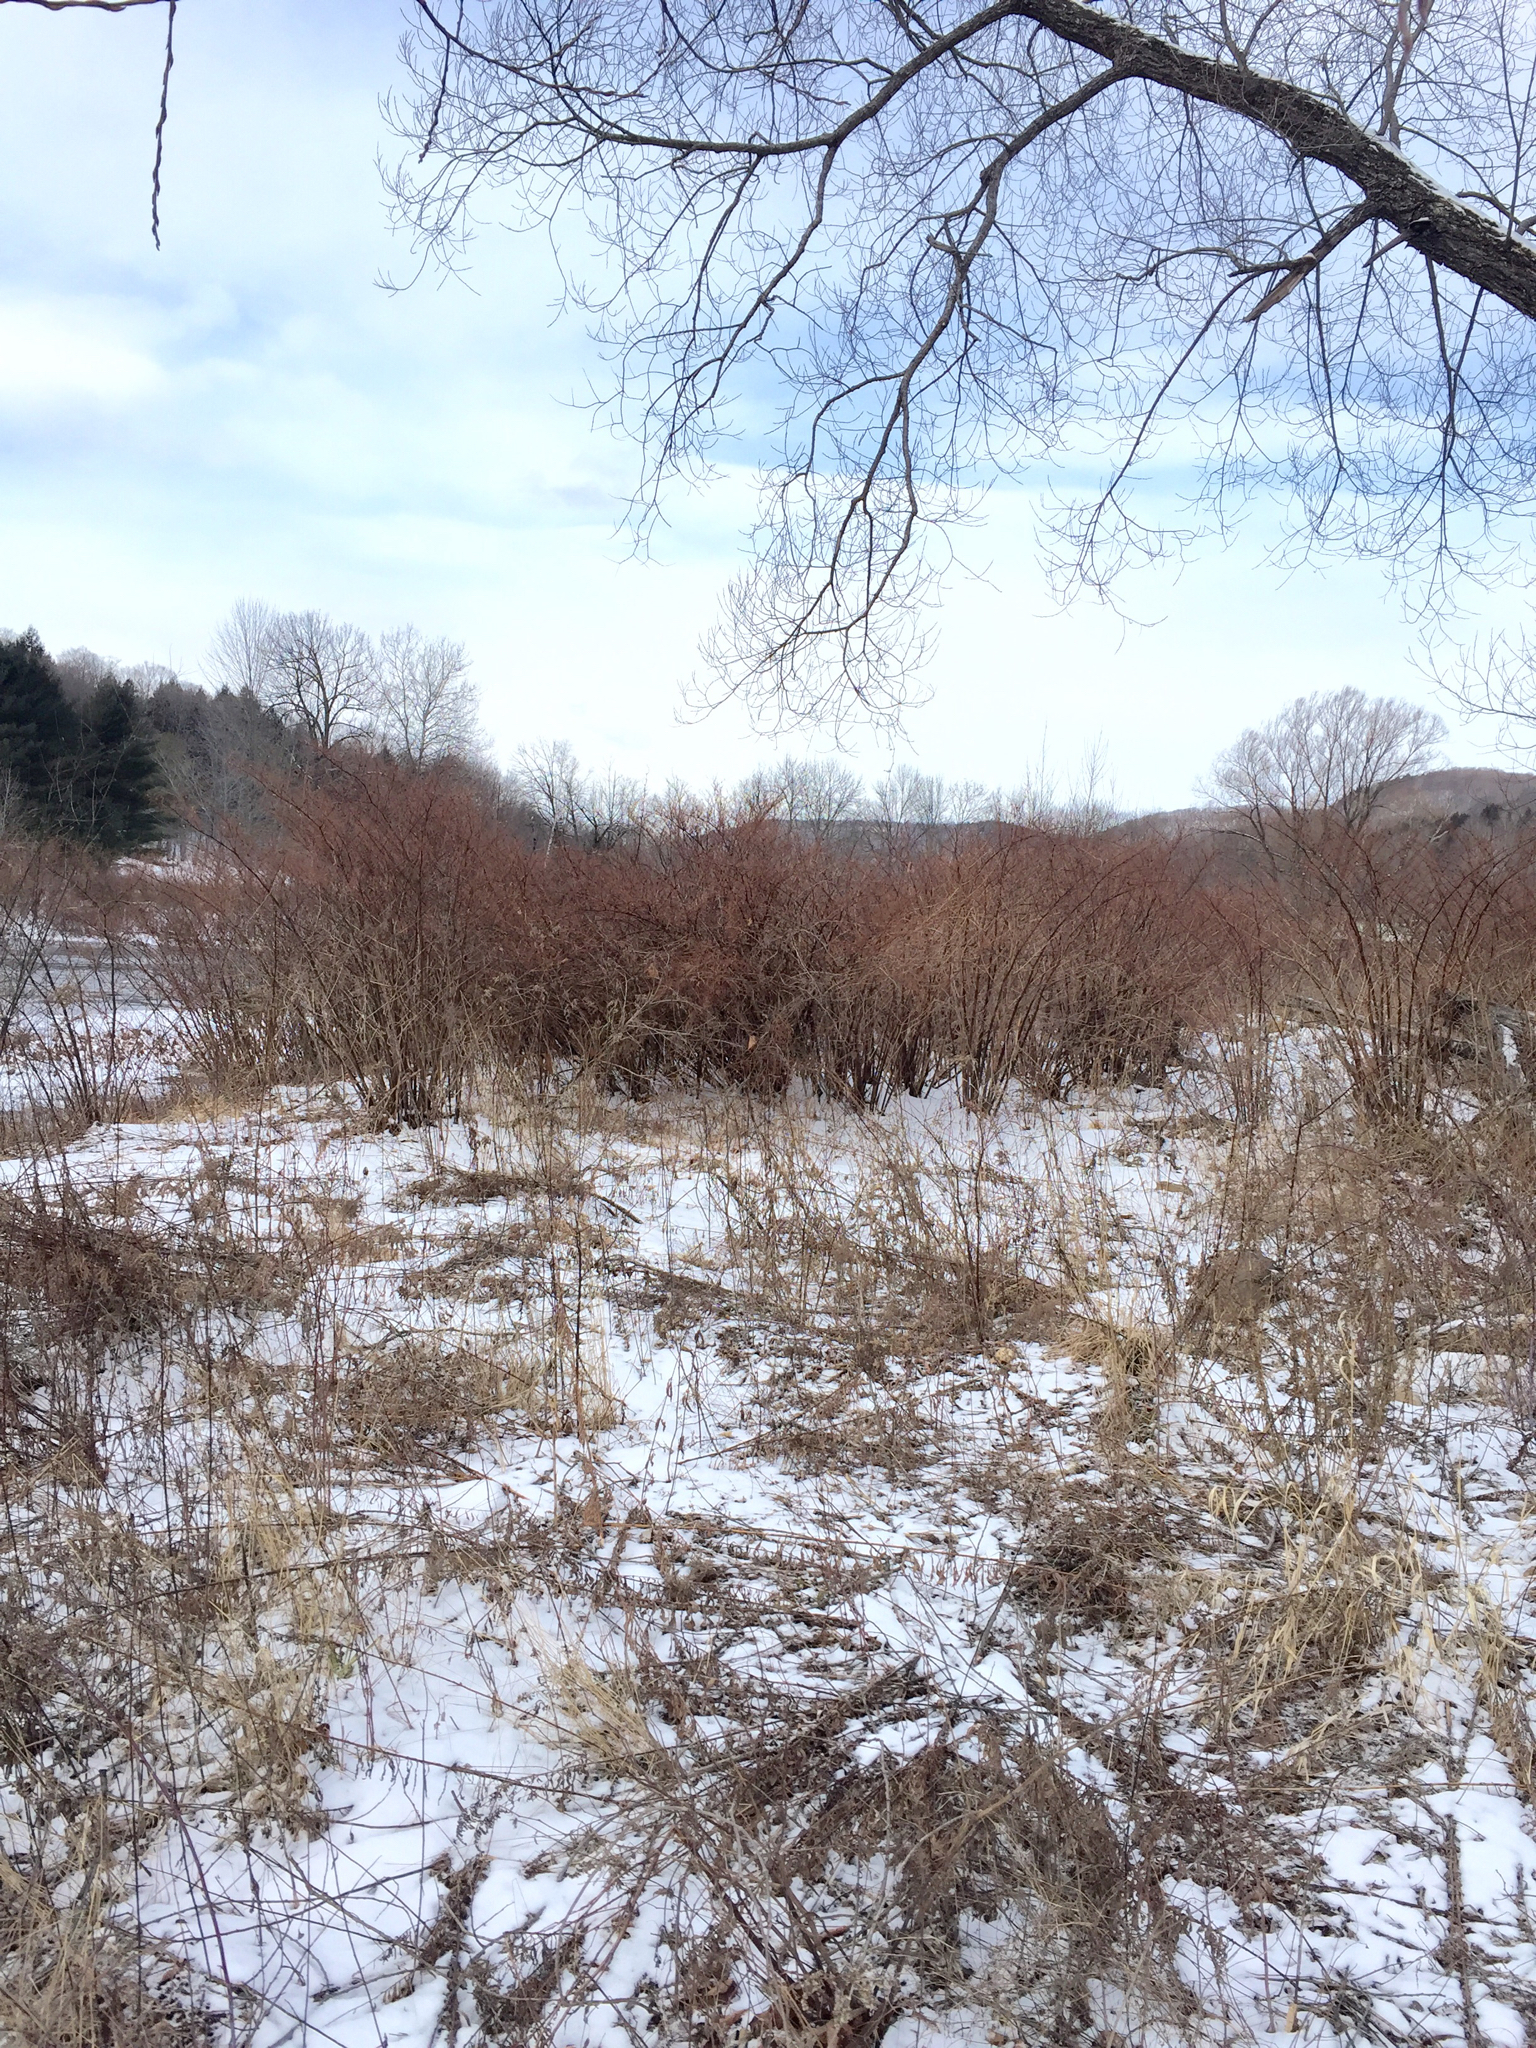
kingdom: Plantae
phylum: Tracheophyta
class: Magnoliopsida
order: Caryophyllales
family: Polygonaceae
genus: Reynoutria
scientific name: Reynoutria japonica
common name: Japanese knotweed
